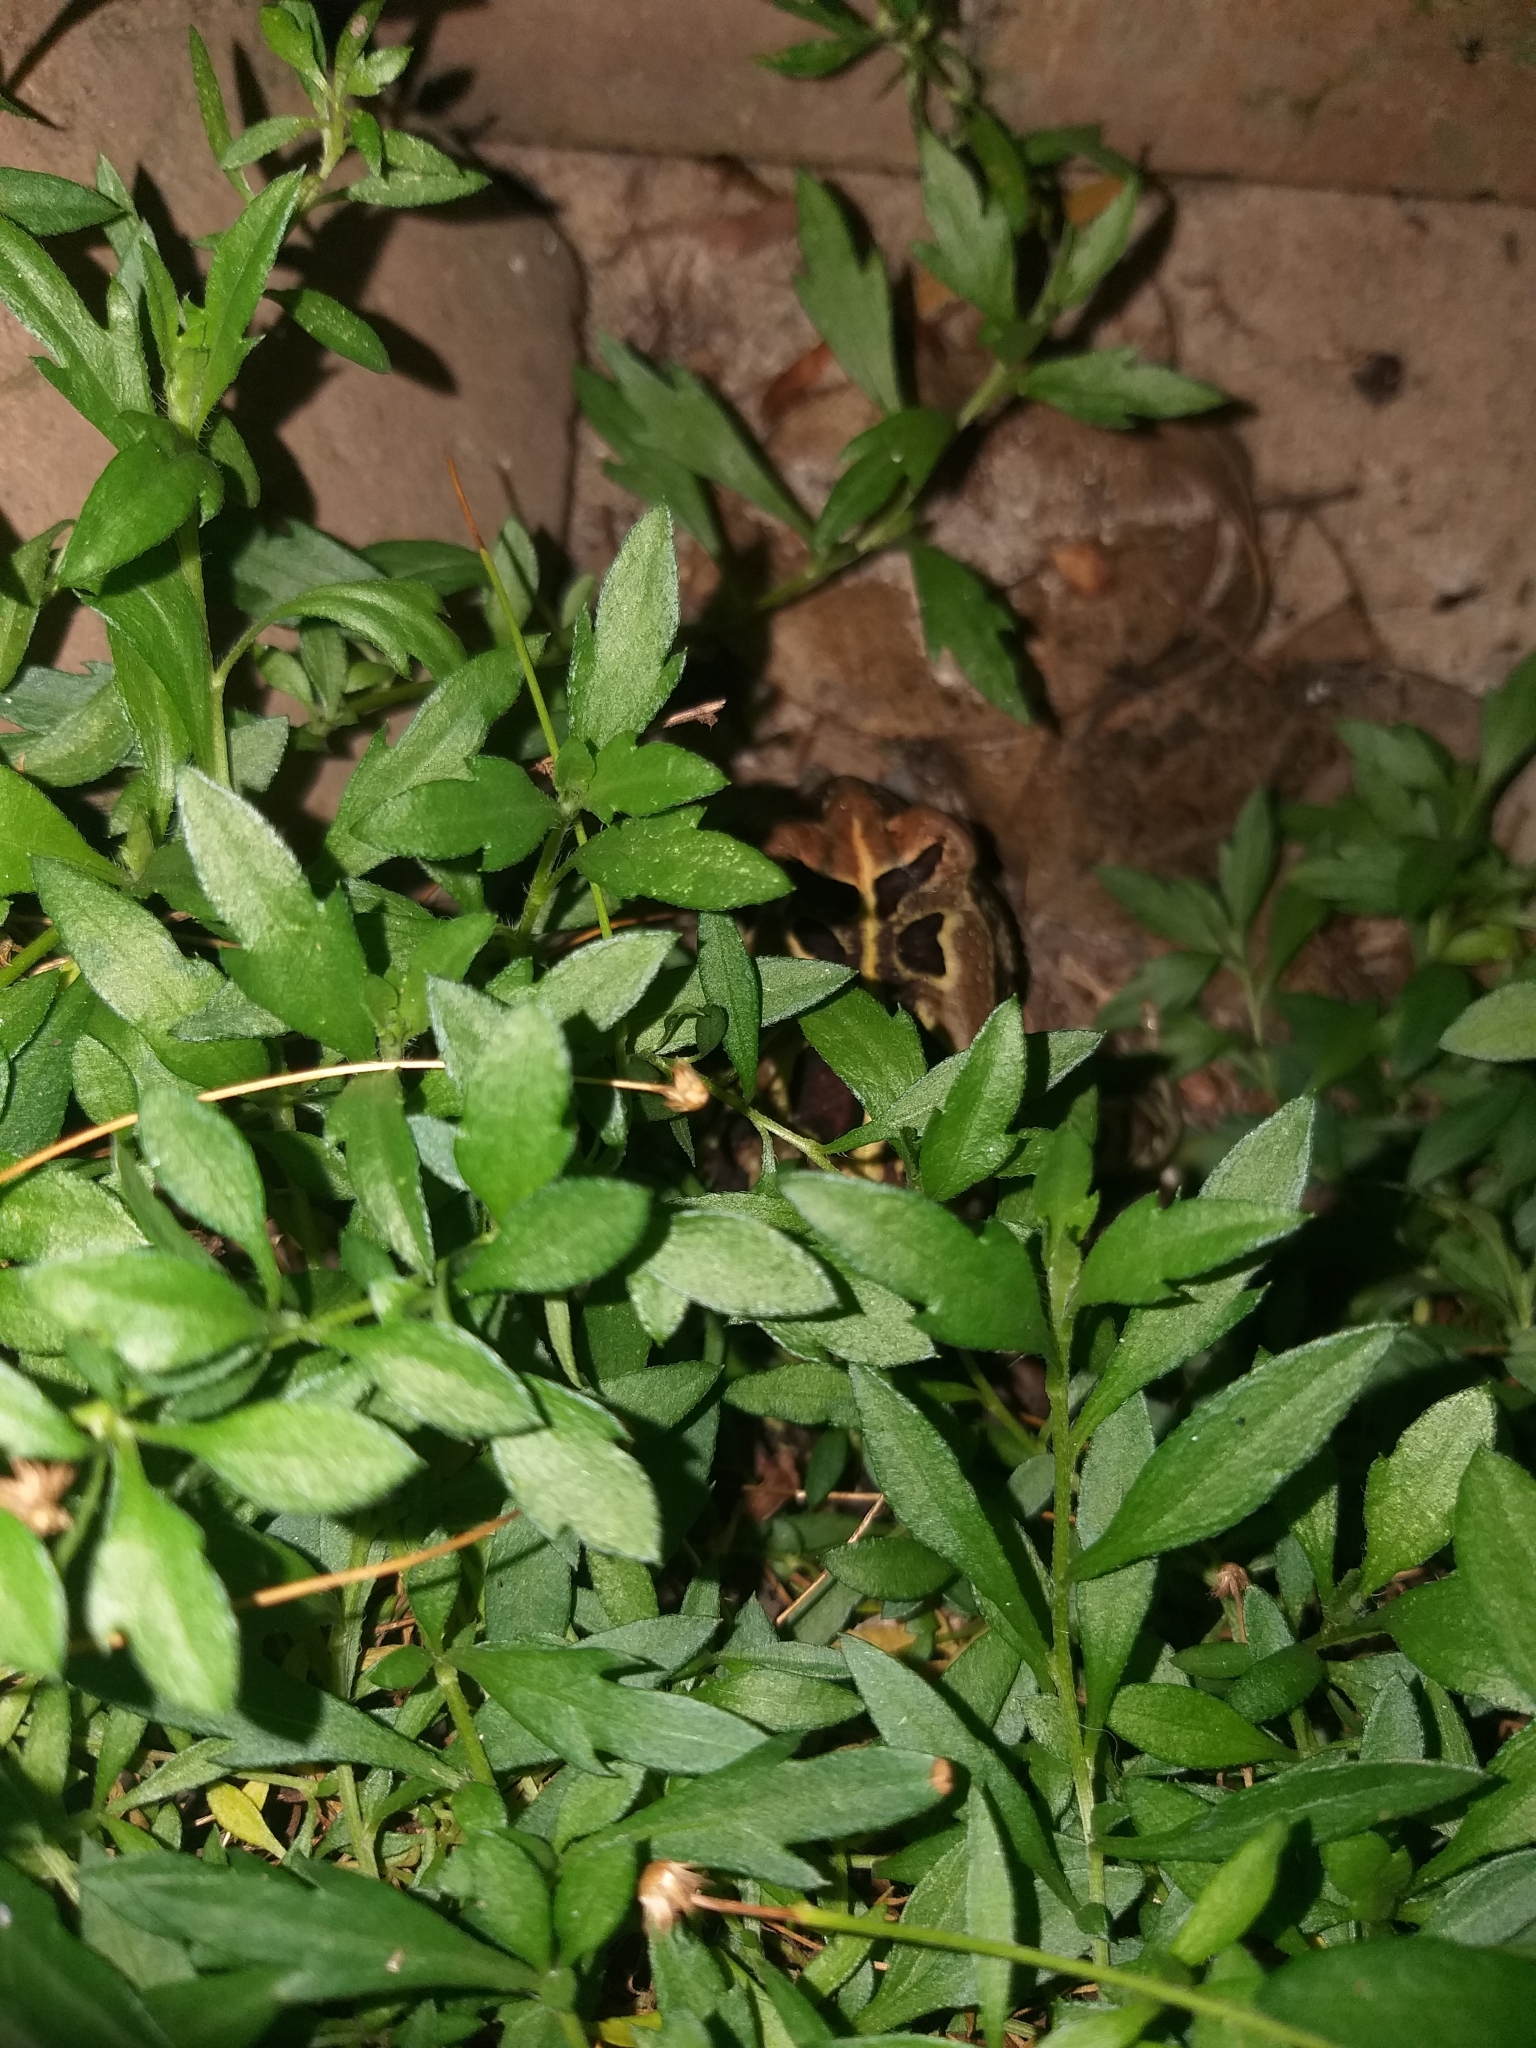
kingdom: Animalia
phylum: Chordata
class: Amphibia
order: Anura
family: Bufonidae
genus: Sclerophrys
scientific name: Sclerophrys pantherina
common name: Panther toad
